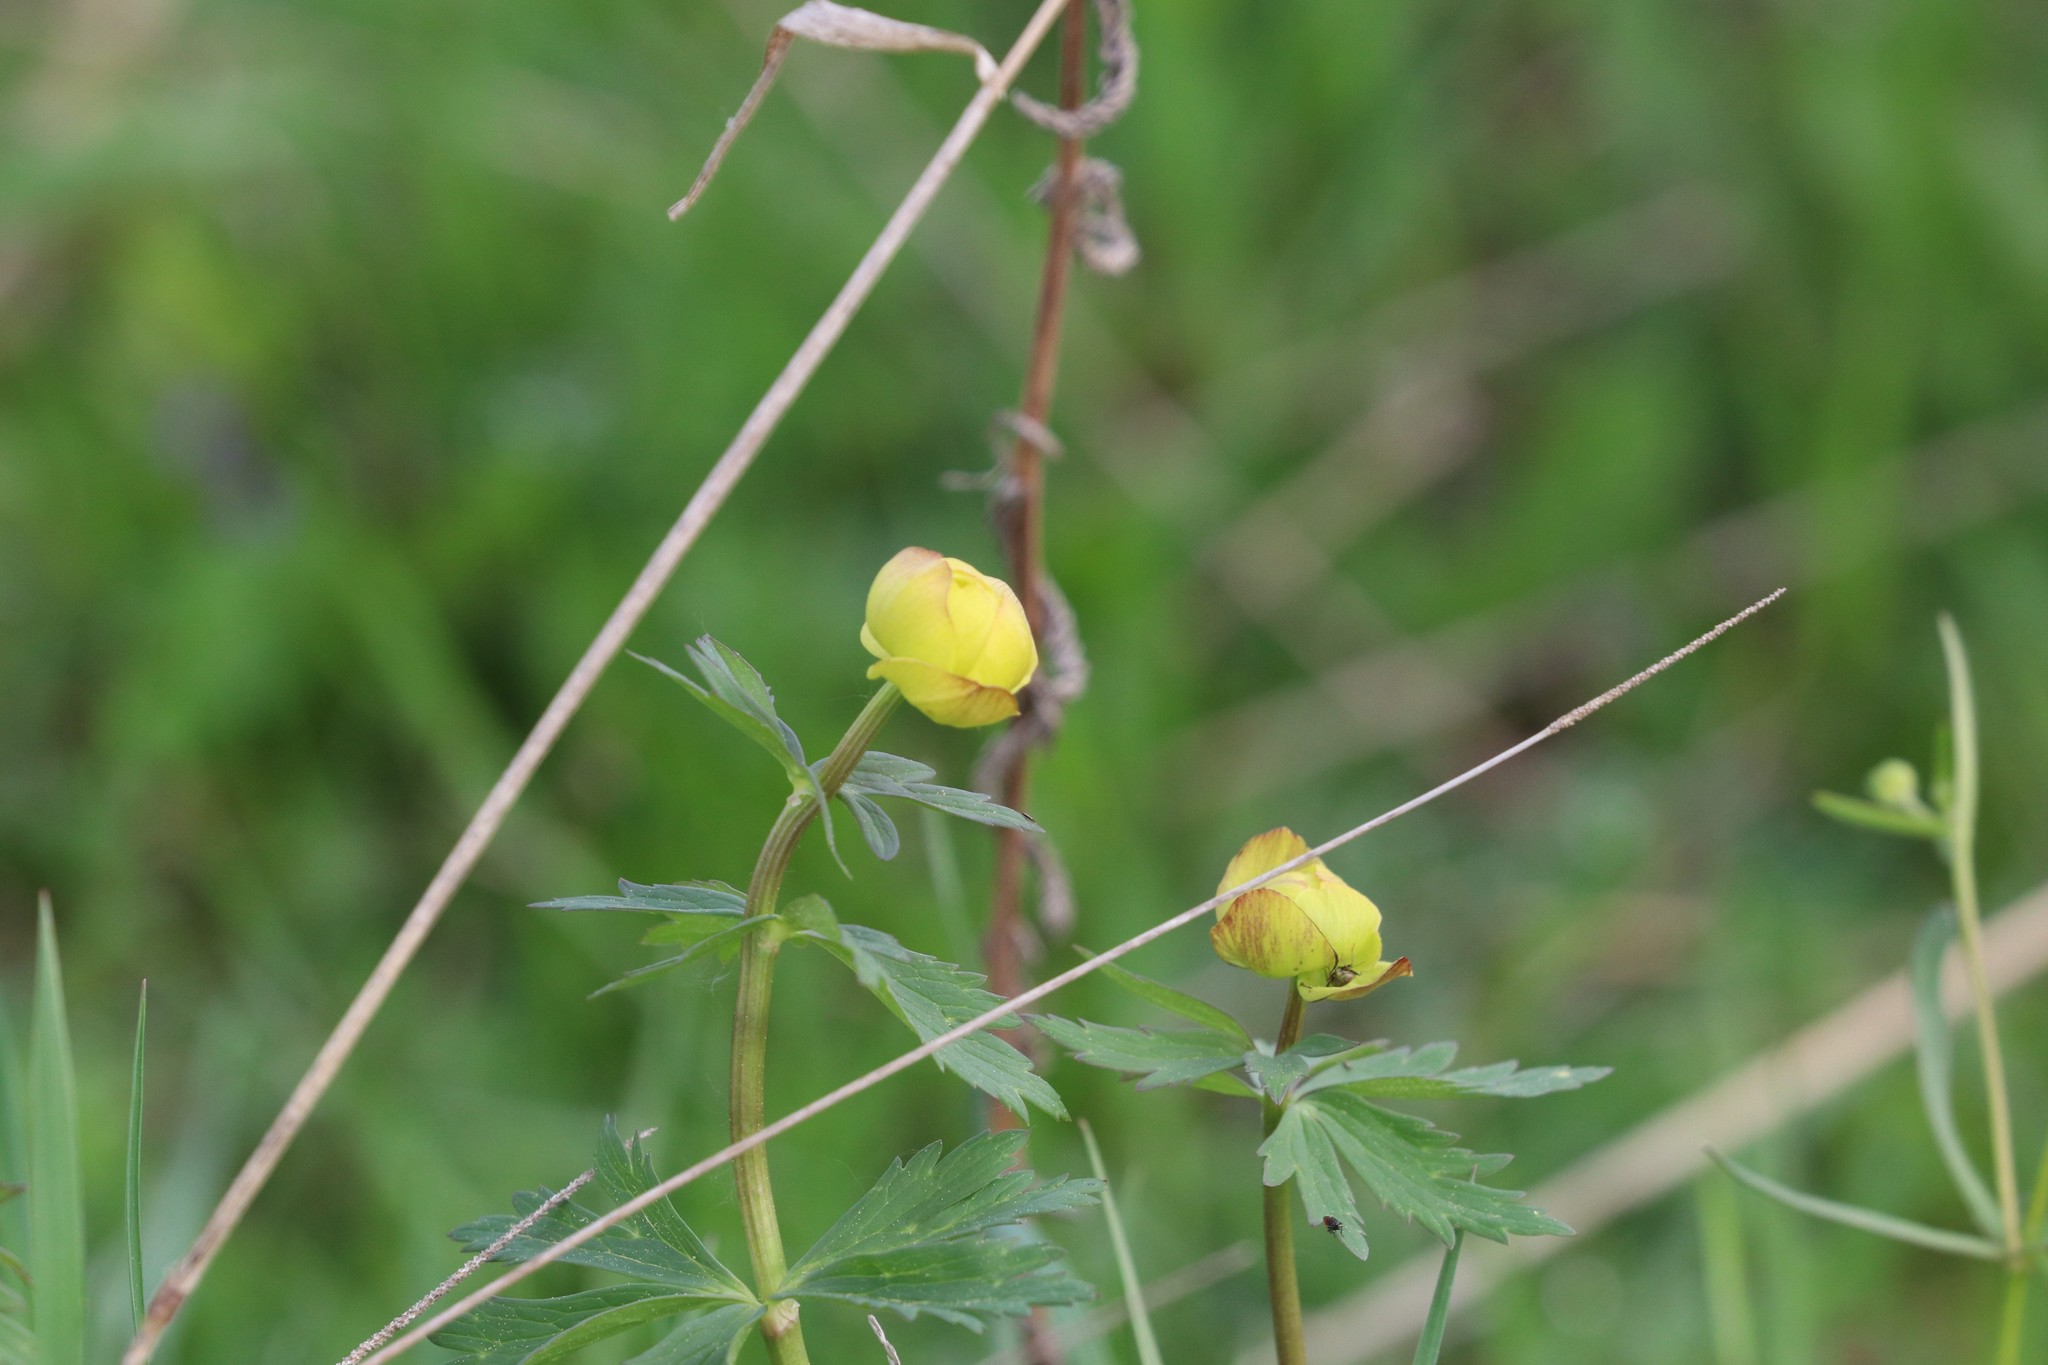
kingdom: Plantae
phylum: Tracheophyta
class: Magnoliopsida
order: Ranunculales
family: Ranunculaceae
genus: Trollius
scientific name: Trollius europaeus
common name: European globeflower
